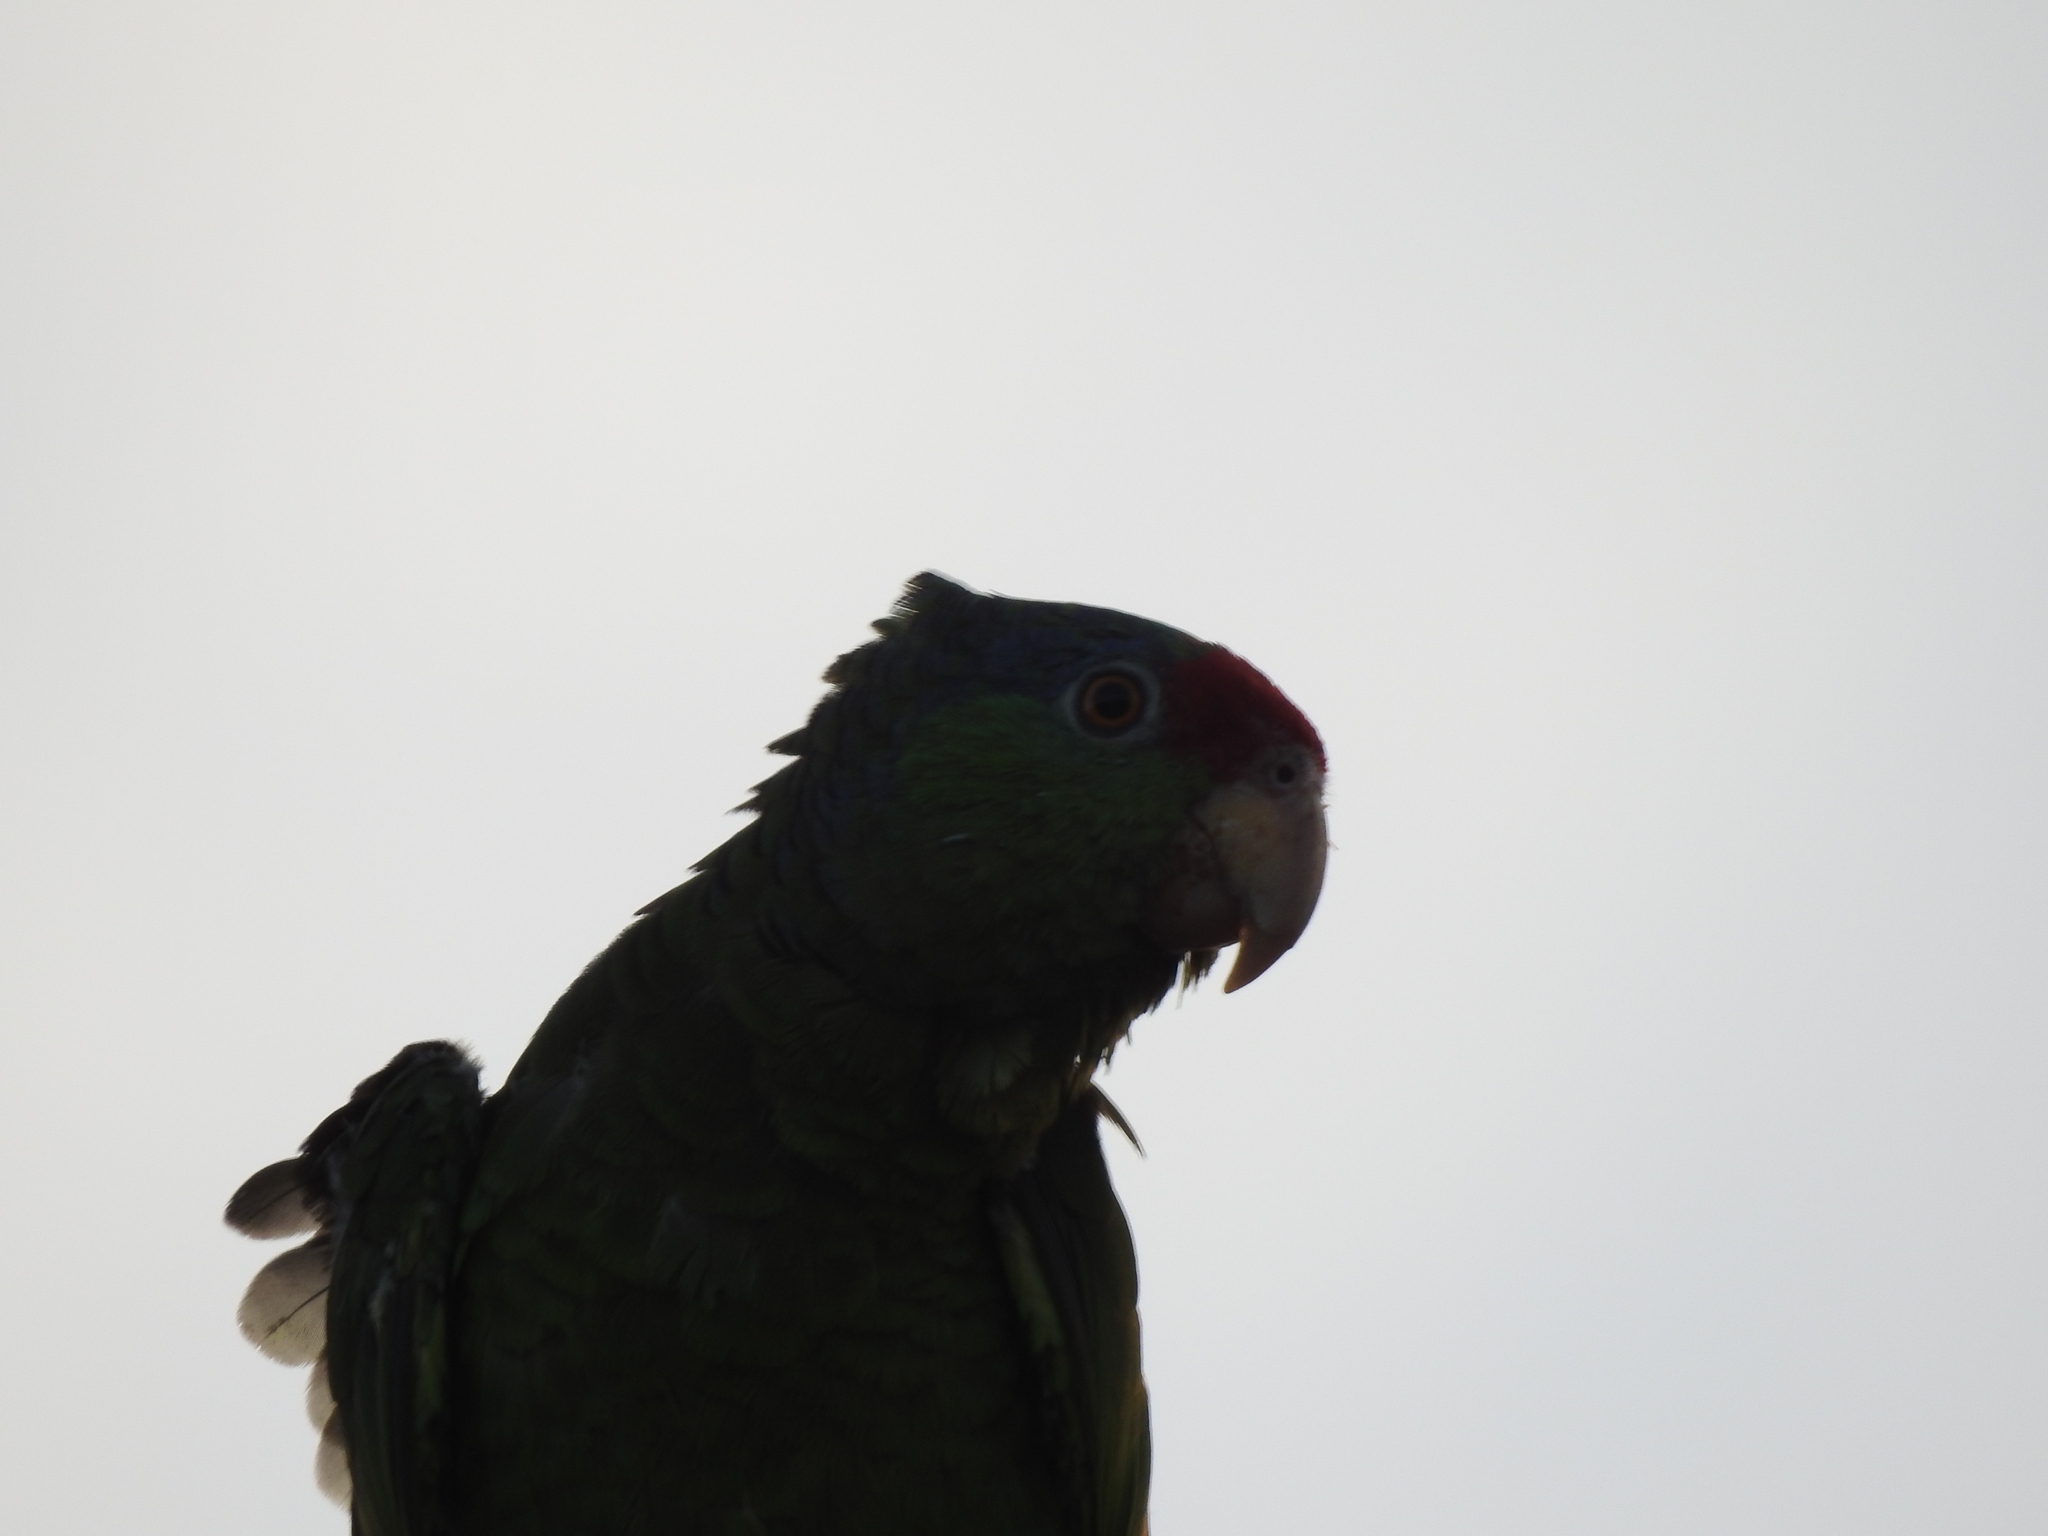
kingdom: Animalia
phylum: Chordata
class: Aves
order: Psittaciformes
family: Psittacidae
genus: Amazona
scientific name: Amazona viridigenalis
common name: Red-crowned amazon
